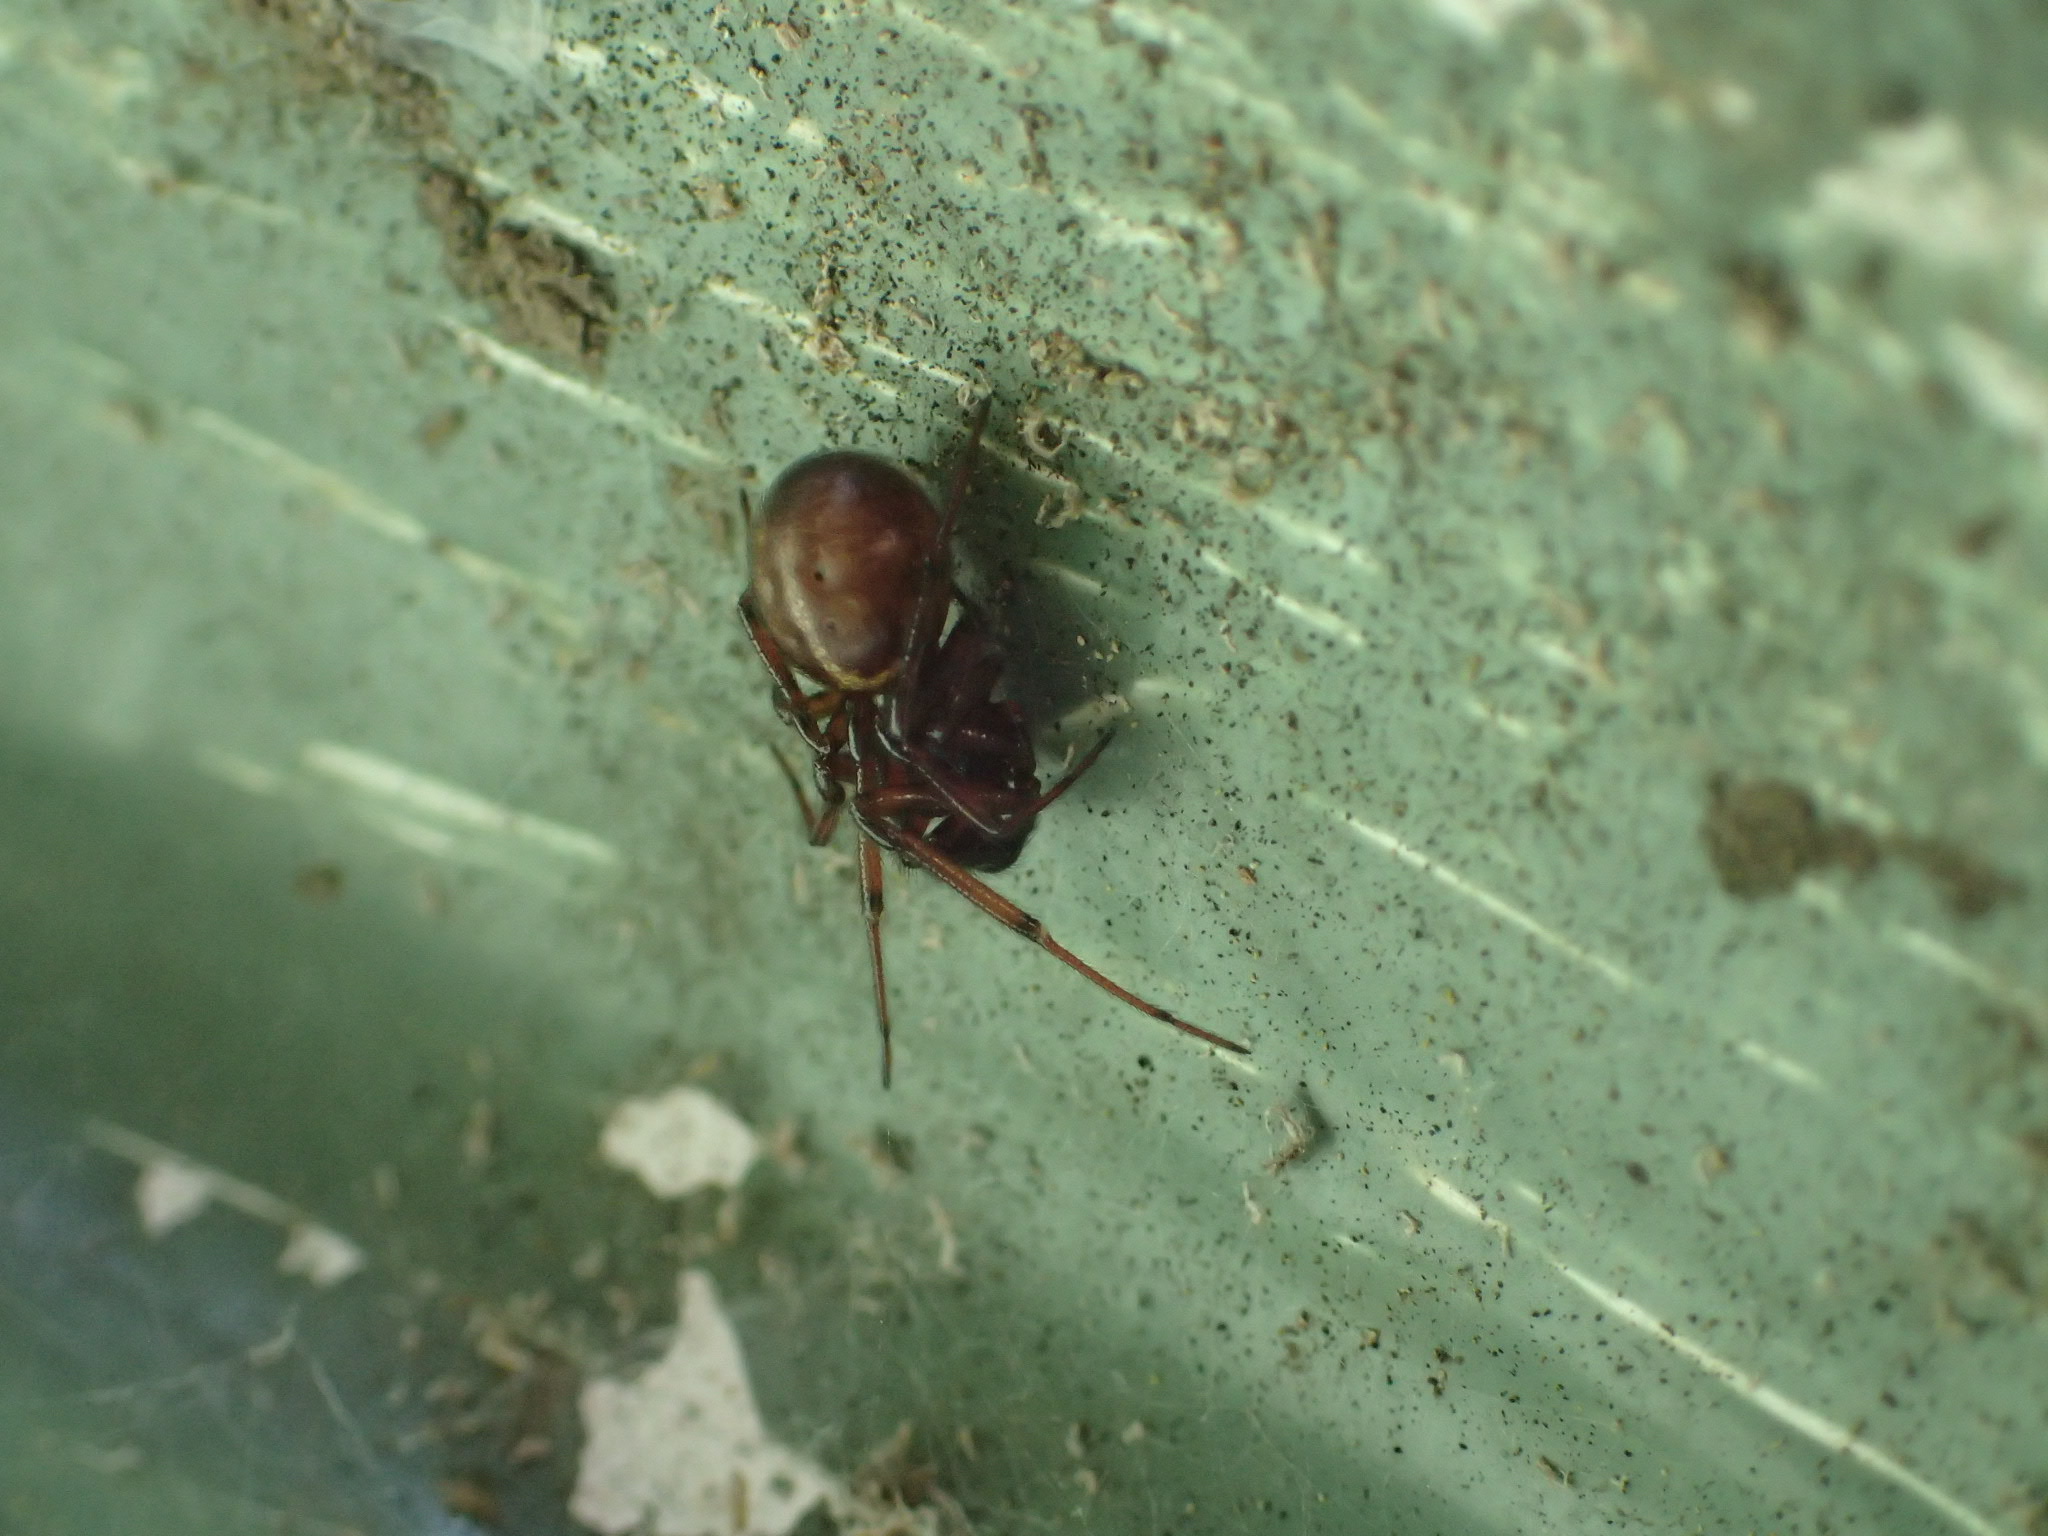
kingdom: Animalia
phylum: Arthropoda
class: Arachnida
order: Araneae
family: Theridiidae
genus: Steatoda
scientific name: Steatoda borealis
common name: Boreal combfoot
